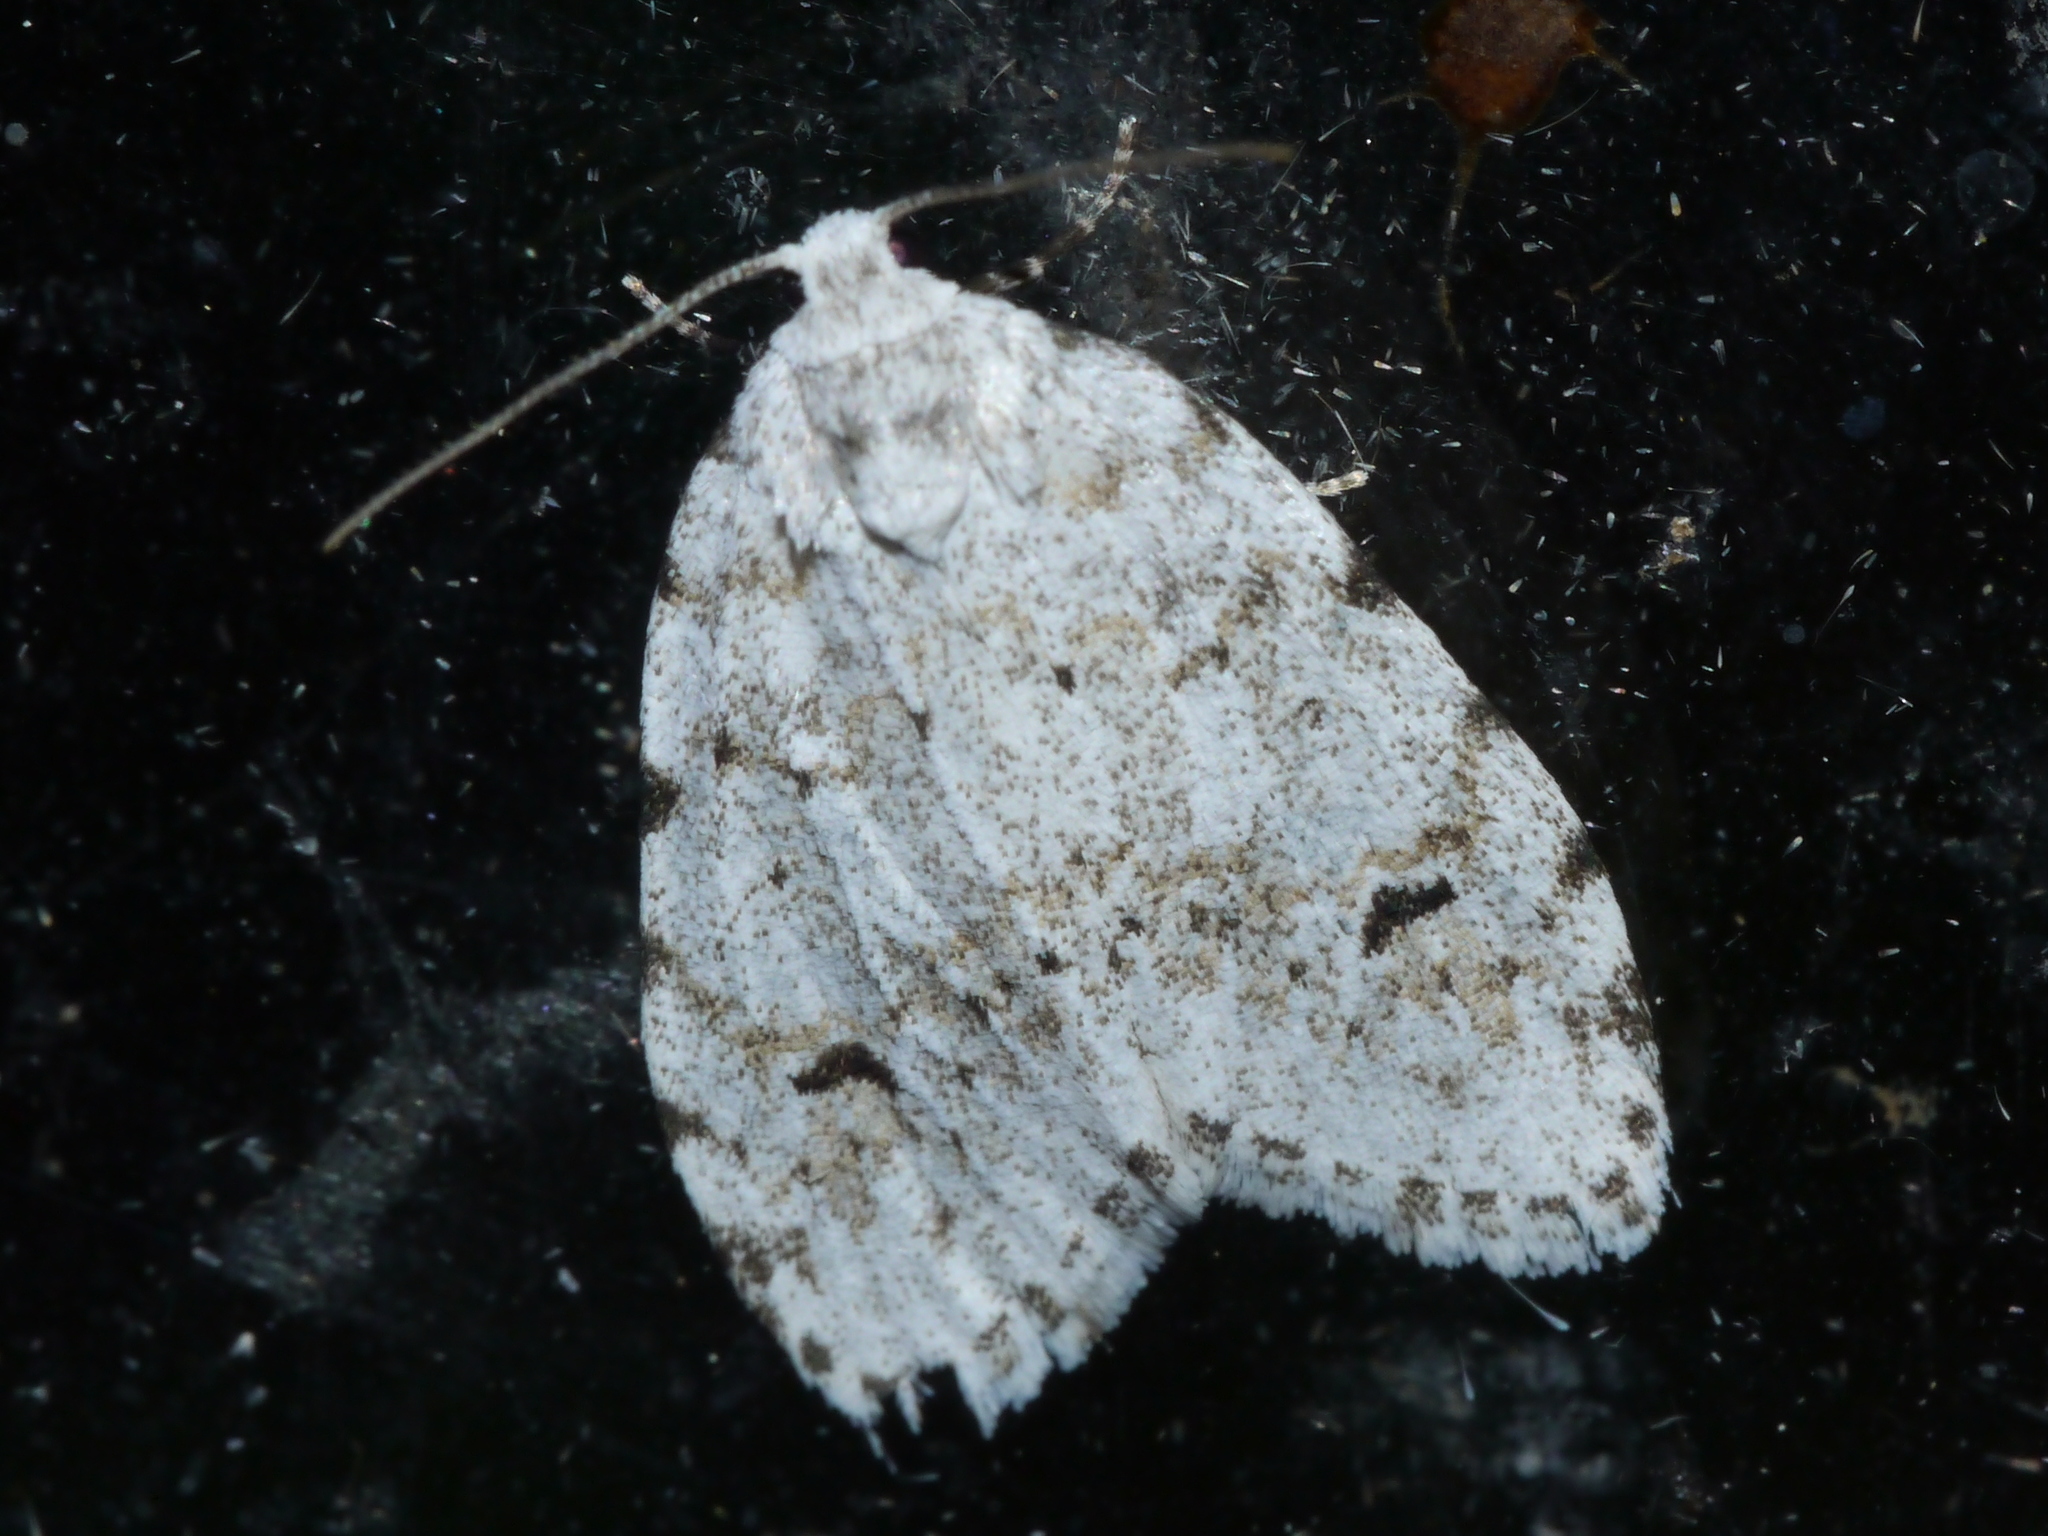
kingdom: Animalia
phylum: Arthropoda
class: Insecta
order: Lepidoptera
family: Erebidae
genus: Clemensia
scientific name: Clemensia albata
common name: Little white lichen moth
